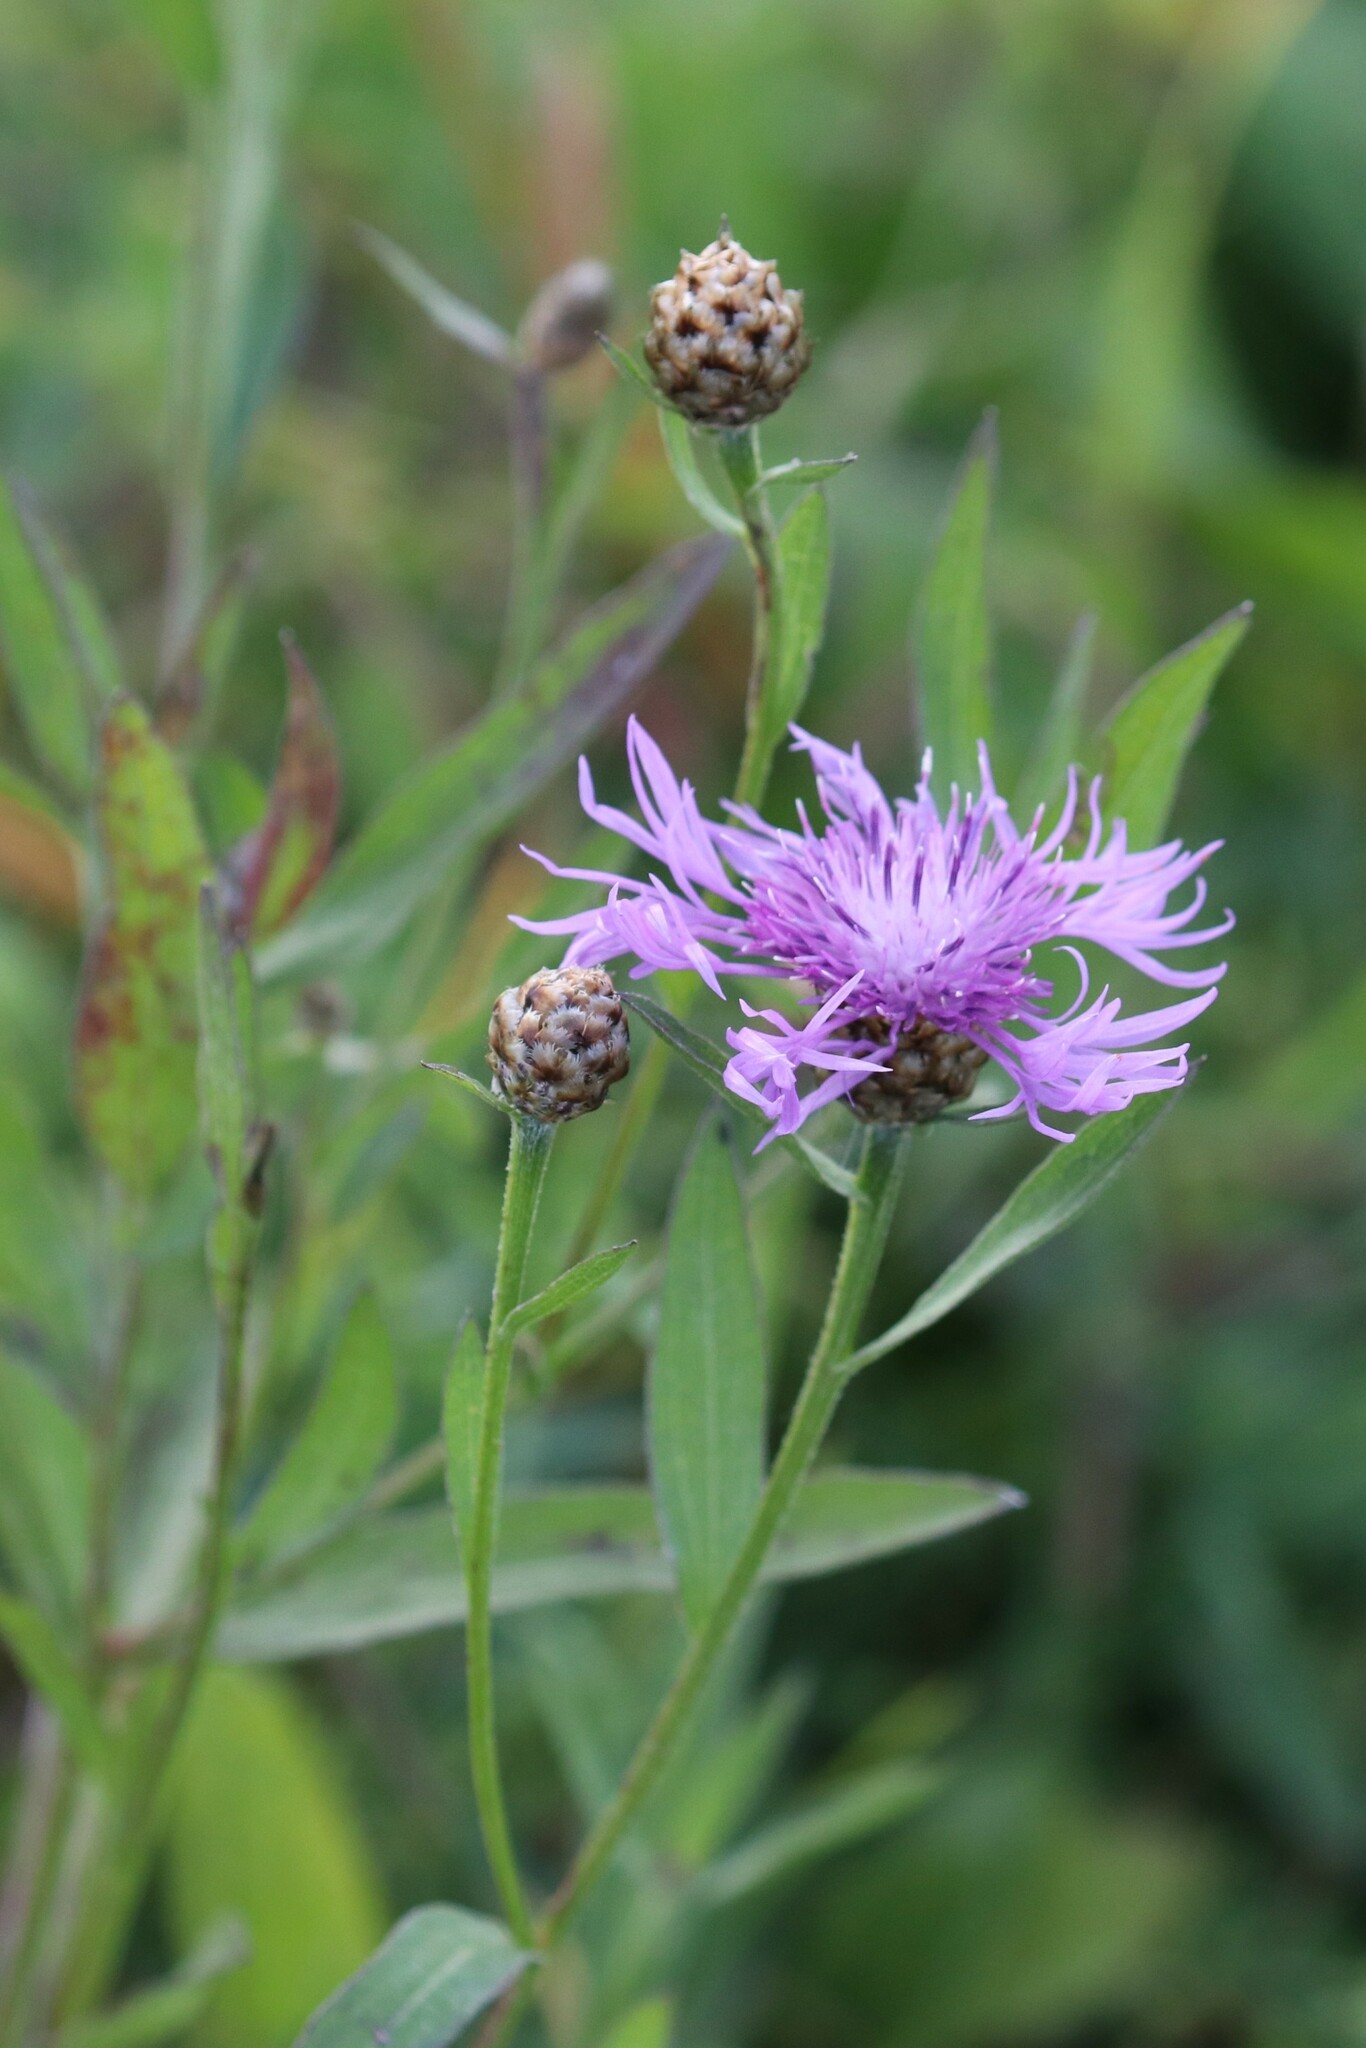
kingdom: Plantae
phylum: Tracheophyta
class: Magnoliopsida
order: Asterales
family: Asteraceae
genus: Centaurea
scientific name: Centaurea jacea
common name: Brown knapweed
